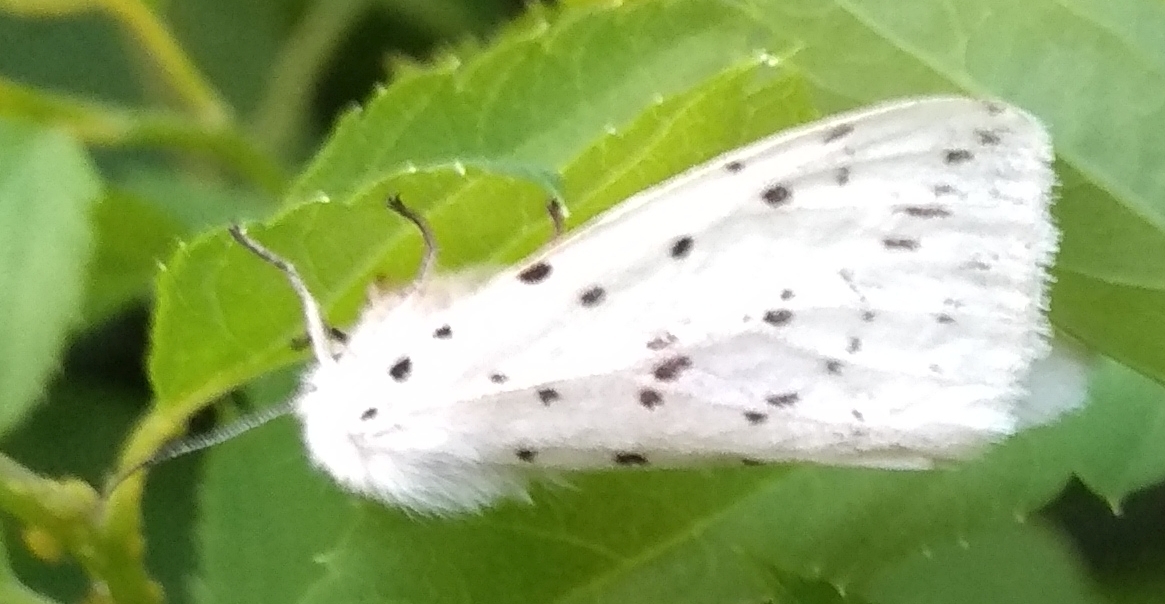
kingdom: Animalia
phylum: Arthropoda
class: Insecta
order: Lepidoptera
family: Erebidae
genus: Spilosoma
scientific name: Spilosoma lubricipeda
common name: White ermine
